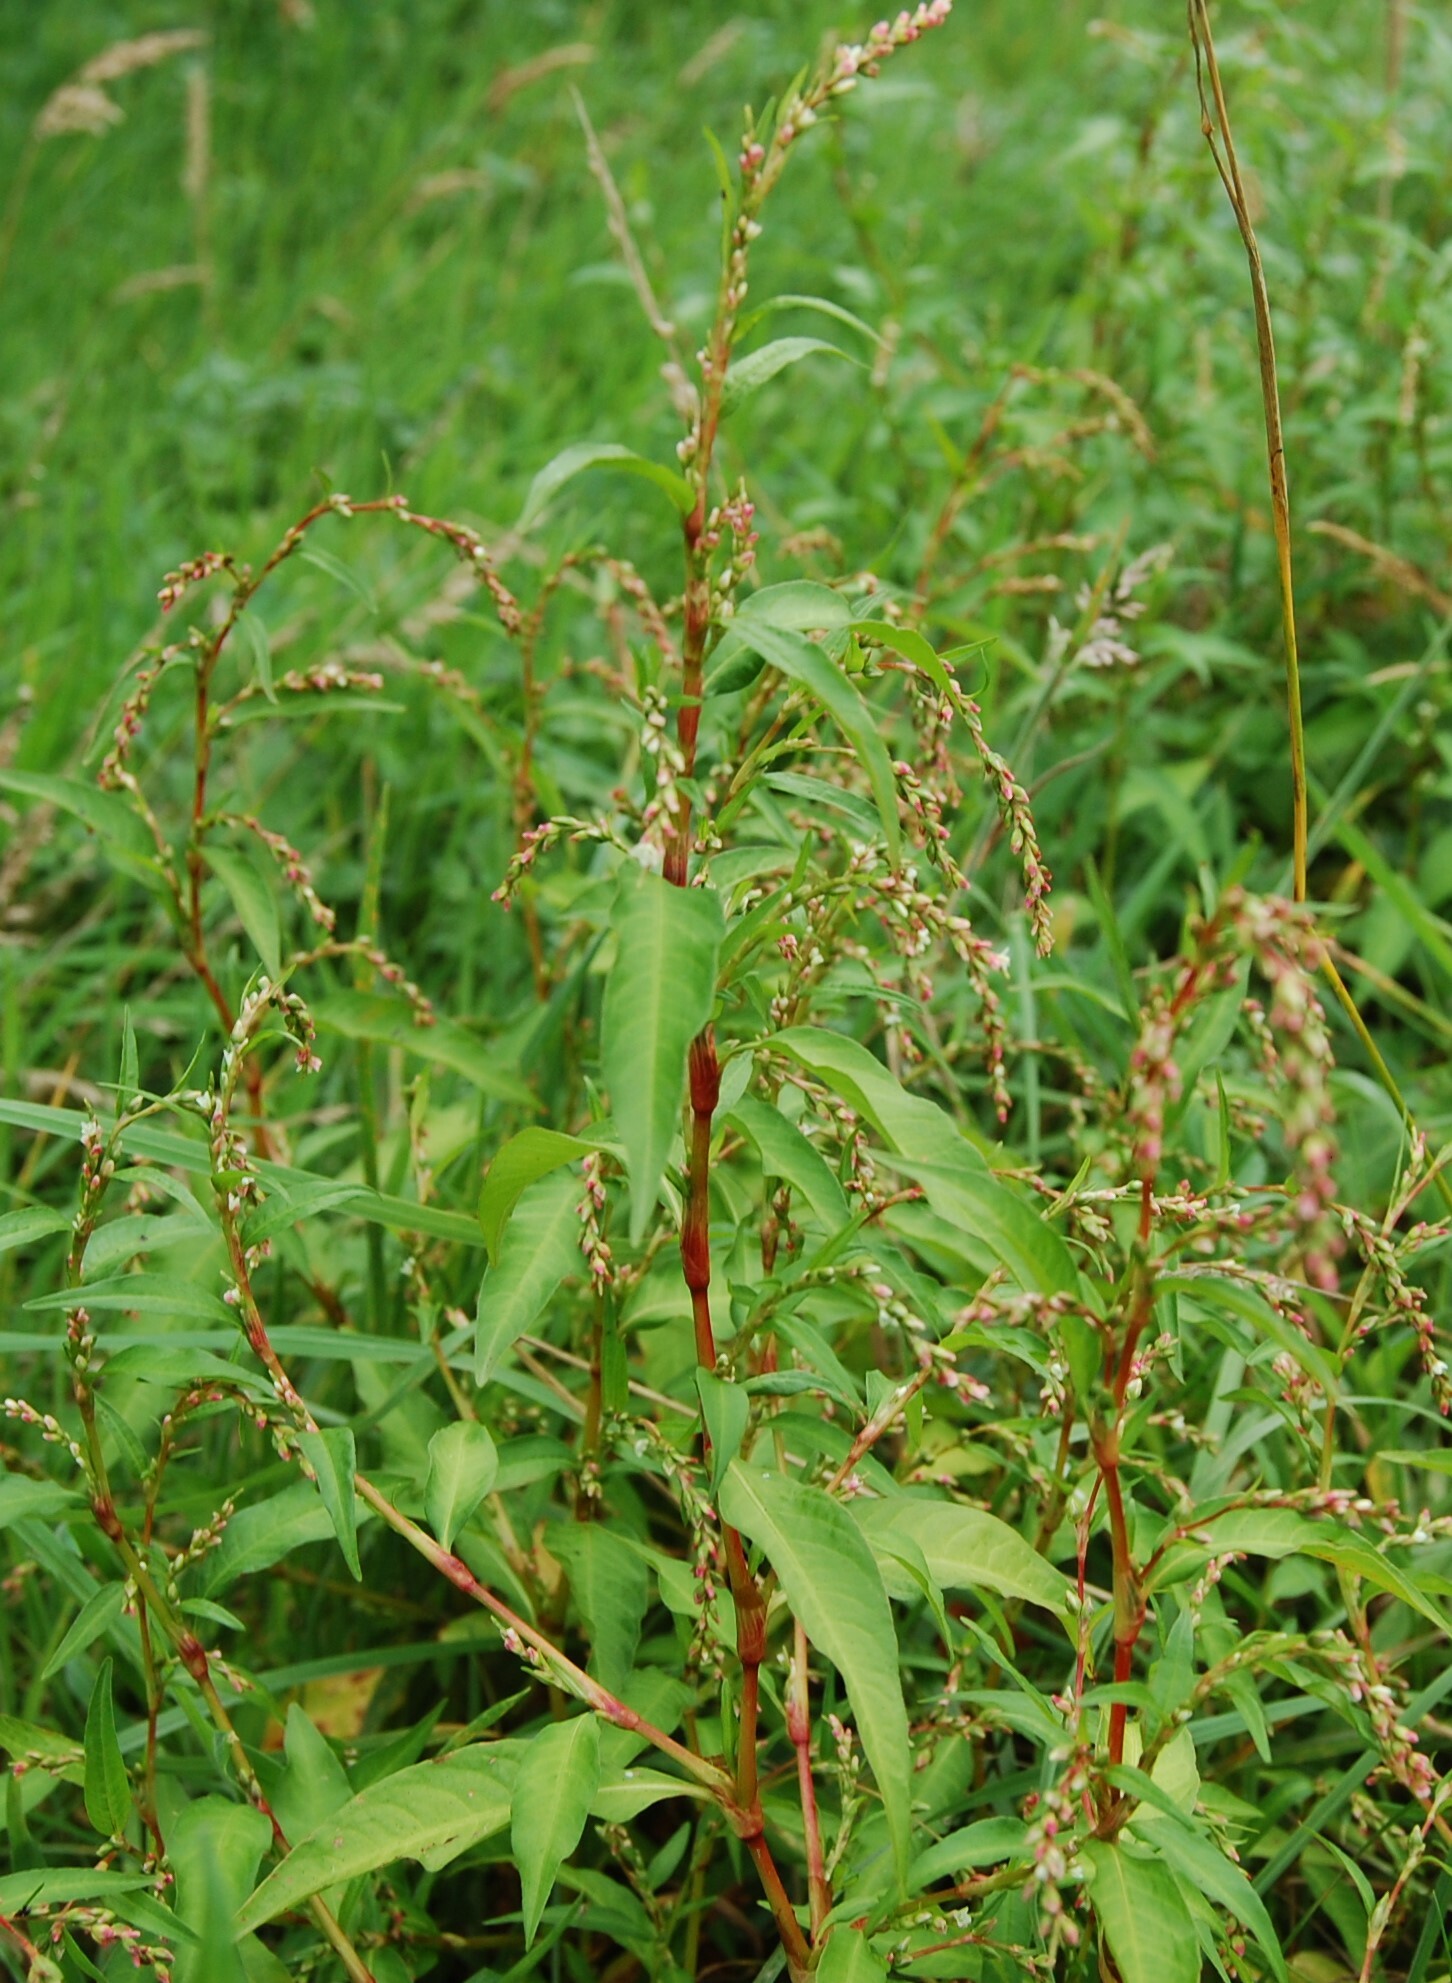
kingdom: Plantae
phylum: Tracheophyta
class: Magnoliopsida
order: Caryophyllales
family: Polygonaceae
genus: Persicaria
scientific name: Persicaria hydropiper
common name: Water-pepper
